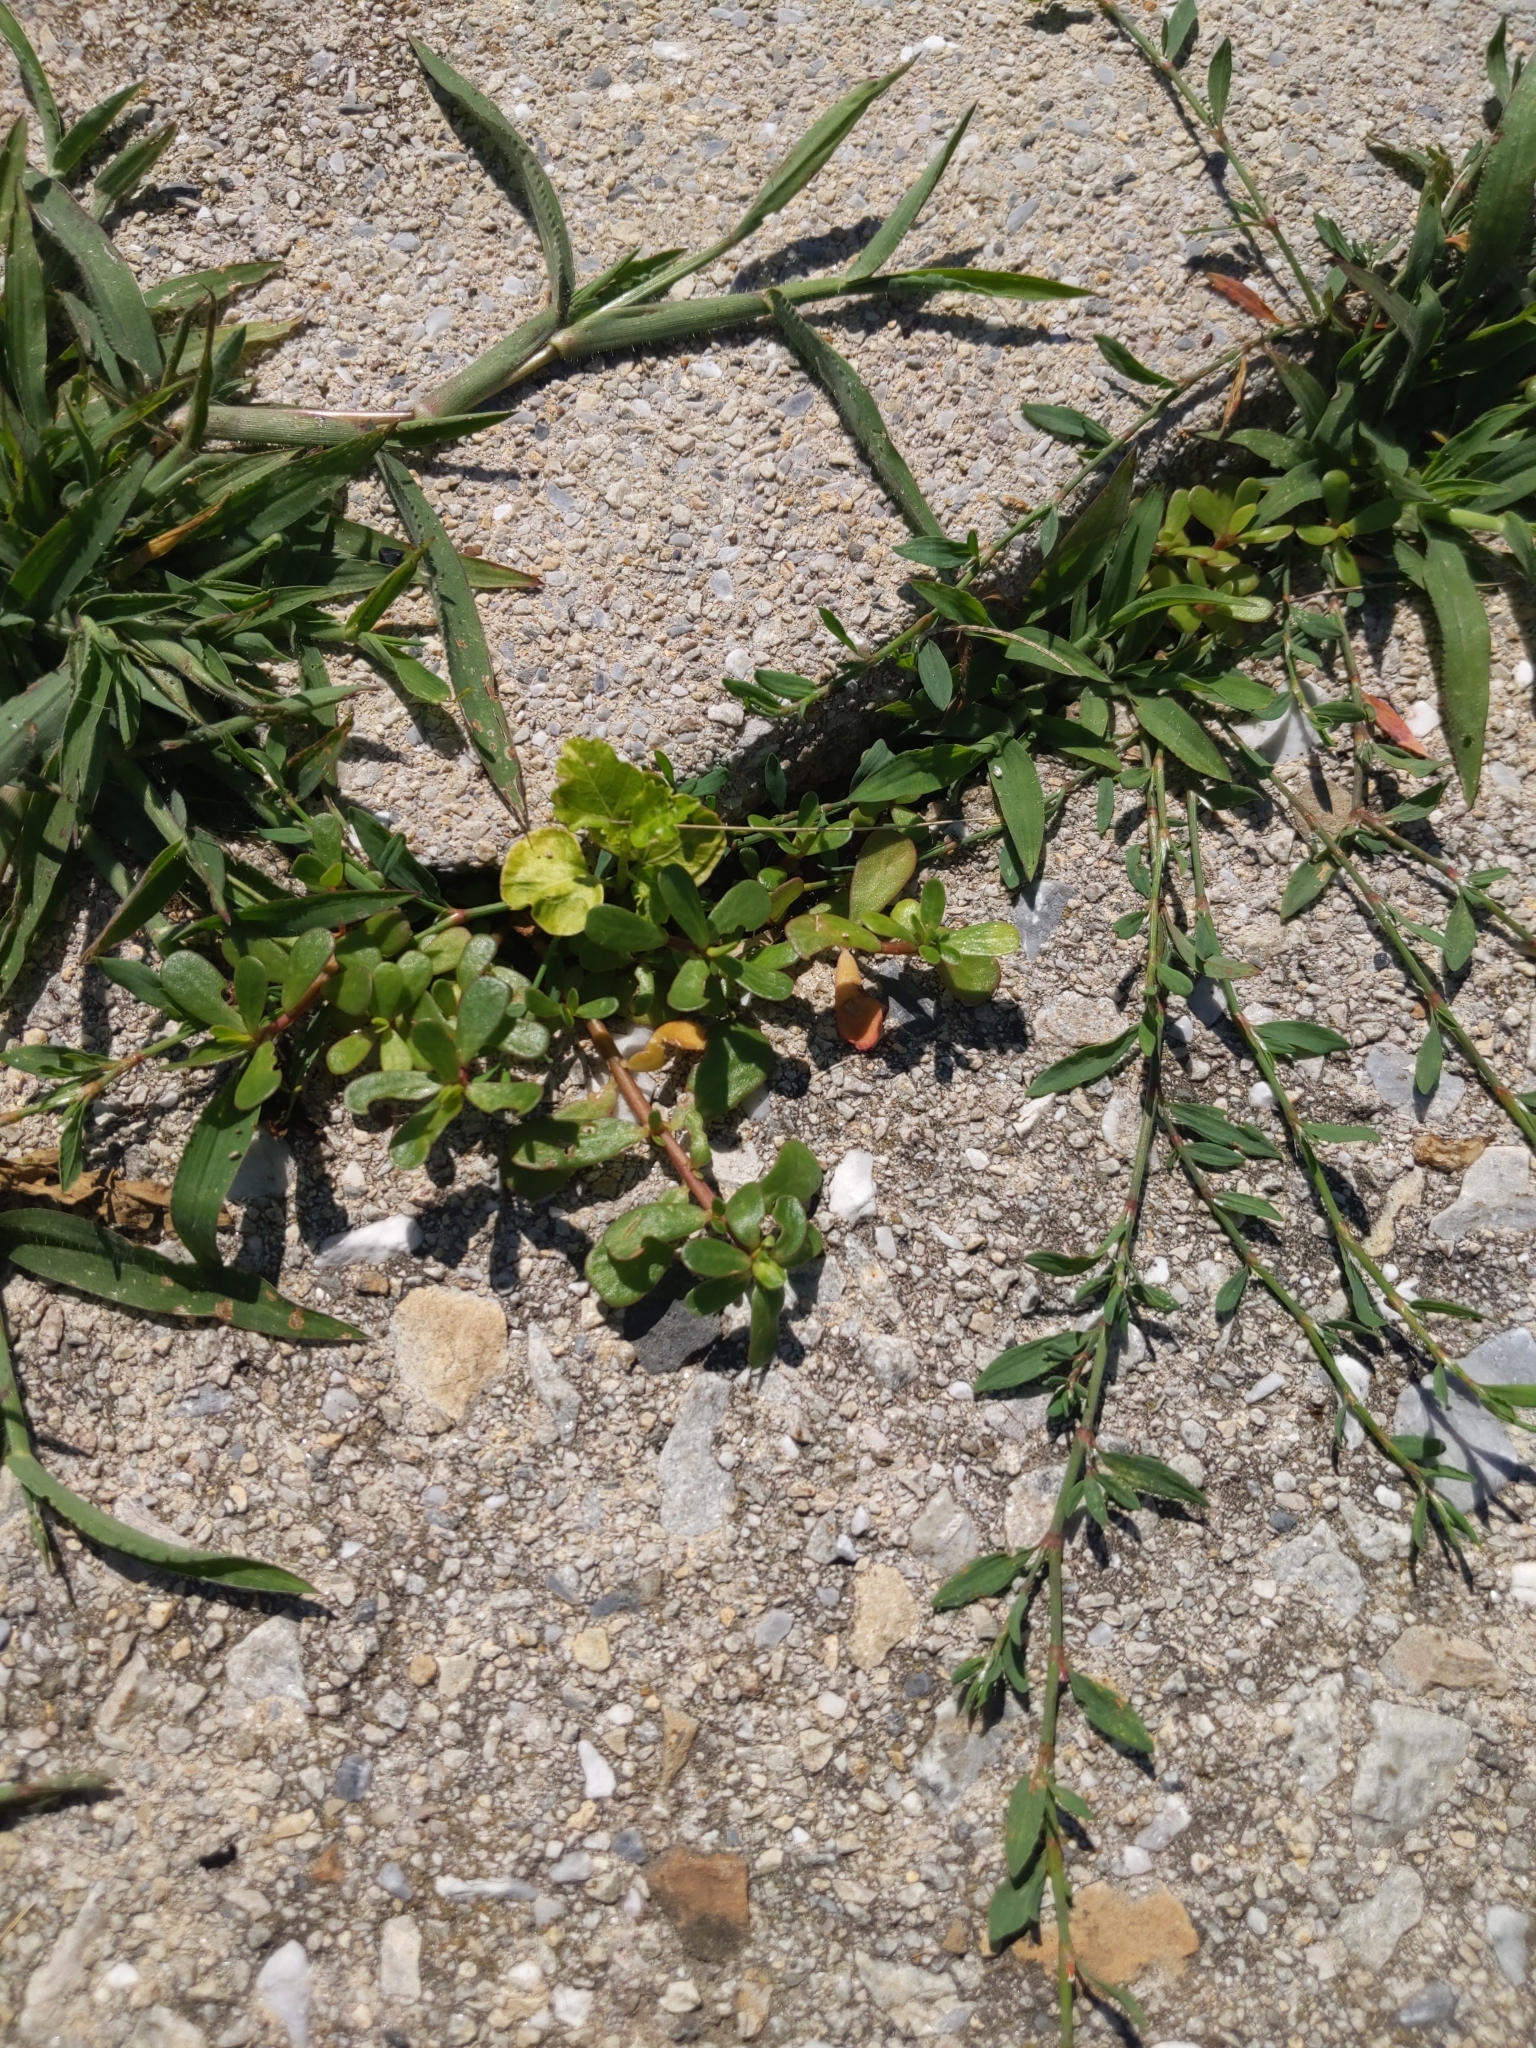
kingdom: Plantae
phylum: Tracheophyta
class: Magnoliopsida
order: Caryophyllales
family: Portulacaceae
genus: Portulaca
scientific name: Portulaca oleracea
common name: Common purslane
